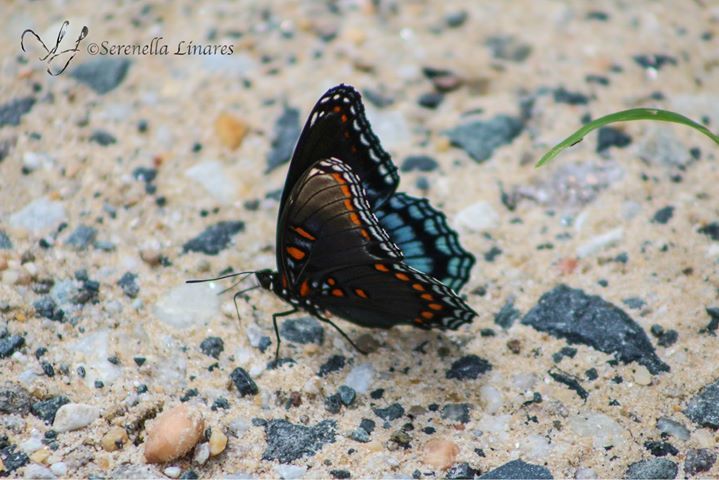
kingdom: Animalia
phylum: Arthropoda
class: Insecta
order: Lepidoptera
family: Nymphalidae
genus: Limenitis
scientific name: Limenitis astyanax
